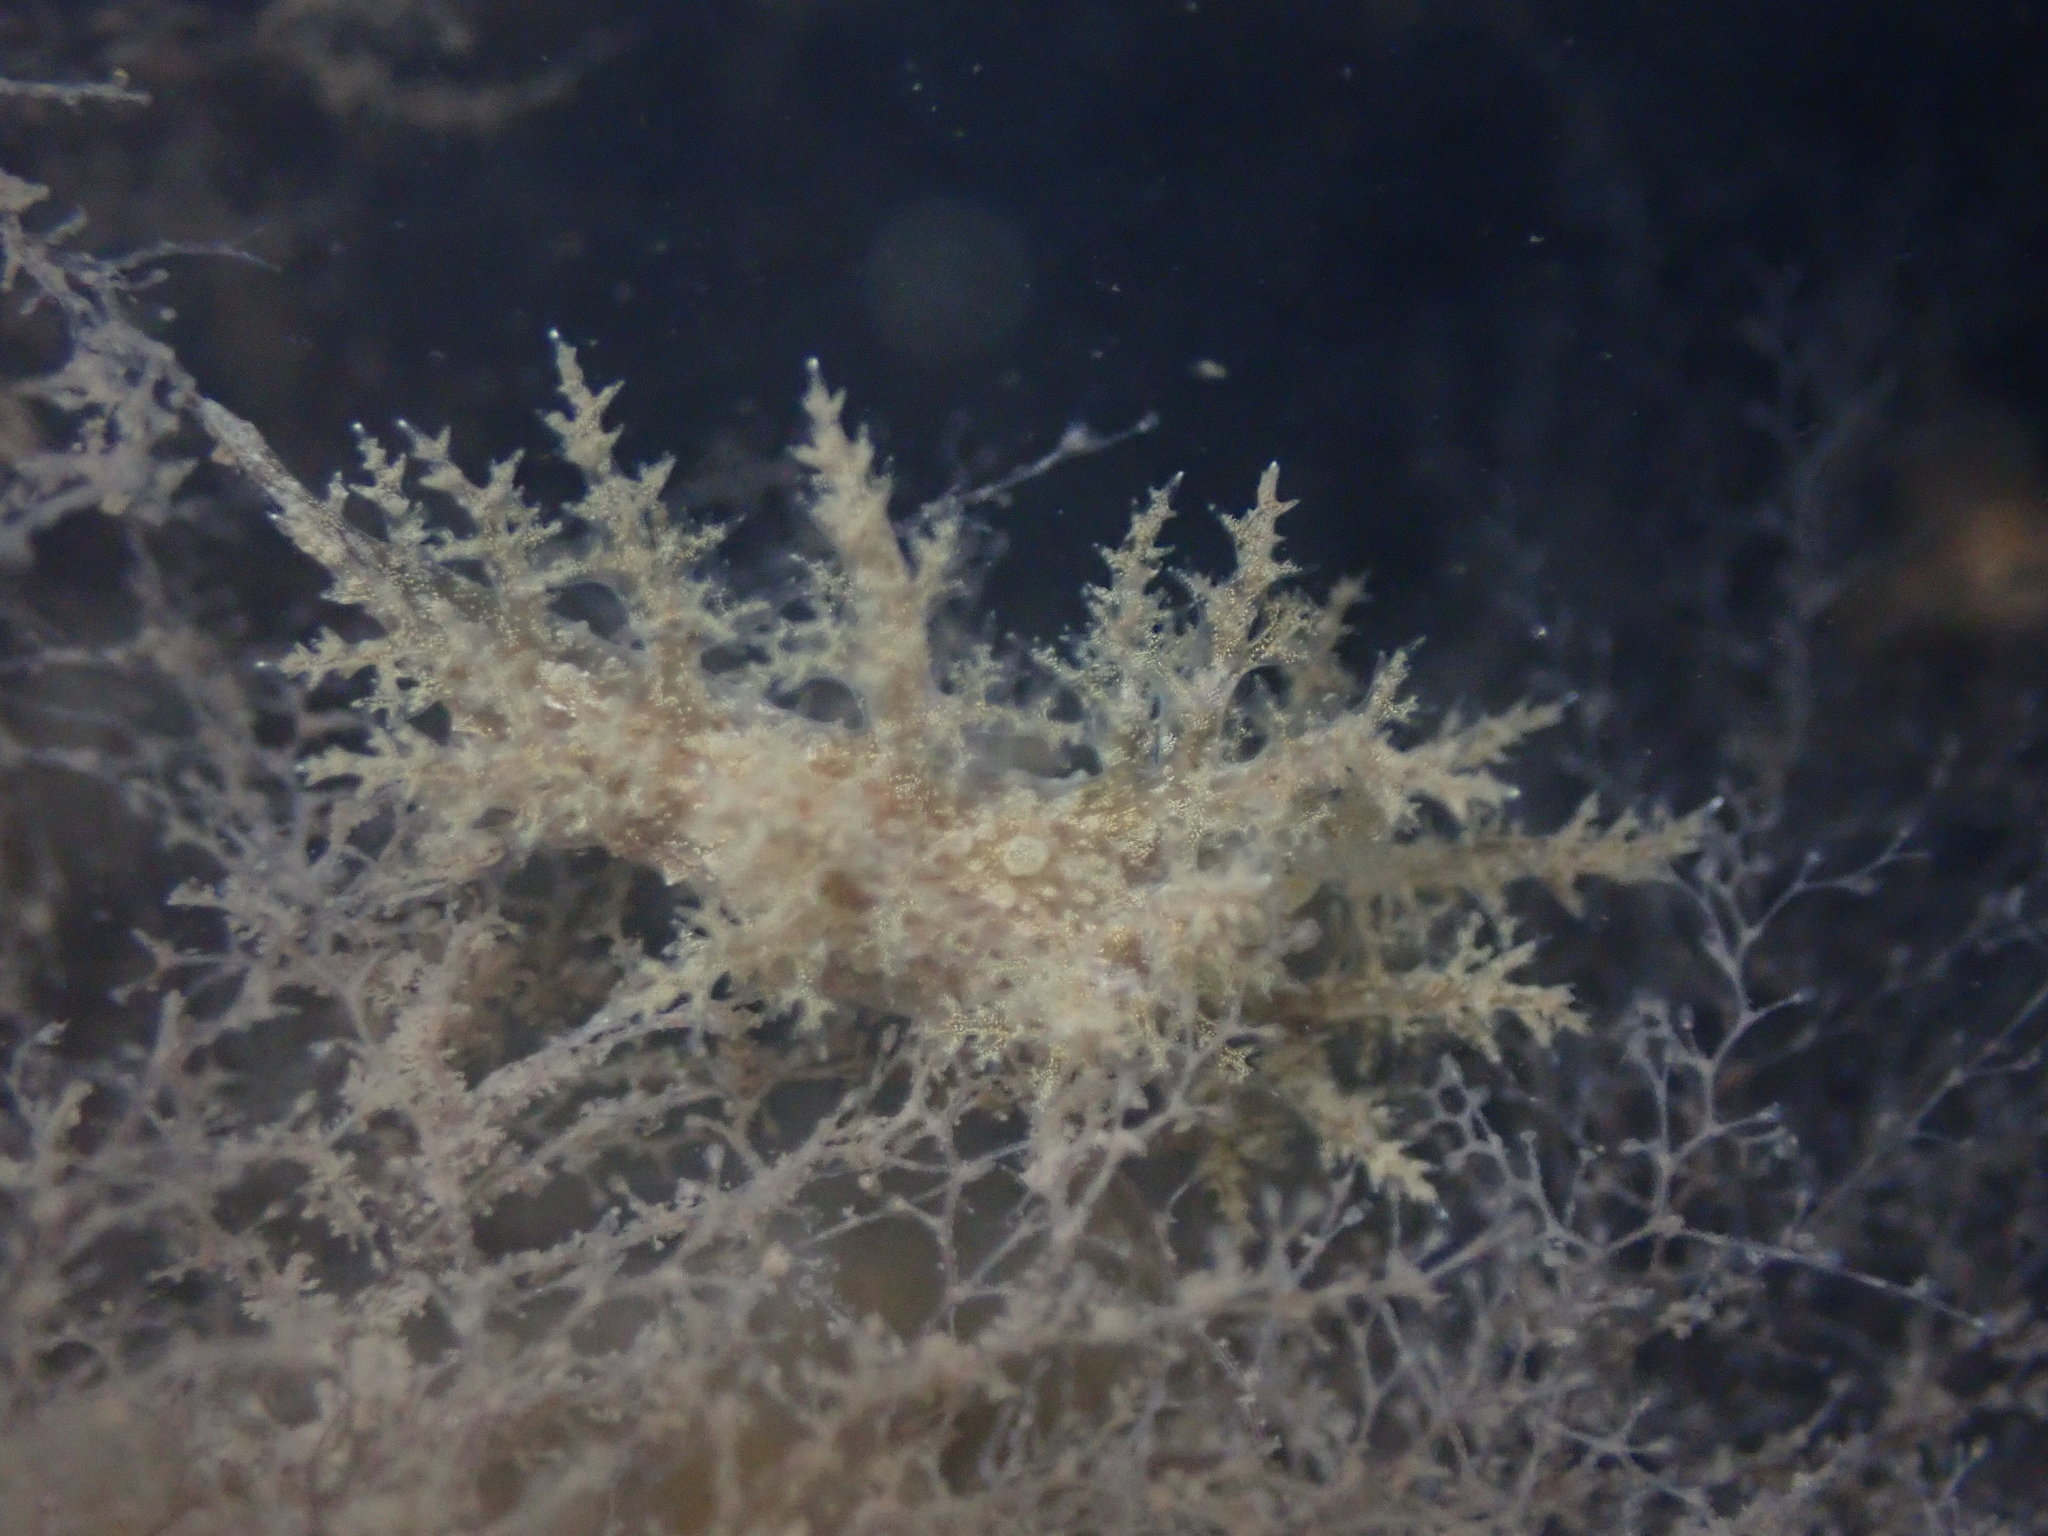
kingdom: Animalia
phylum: Mollusca
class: Gastropoda
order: Nudibranchia
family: Dendronotidae
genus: Dendronotus
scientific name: Dendronotus venustus
